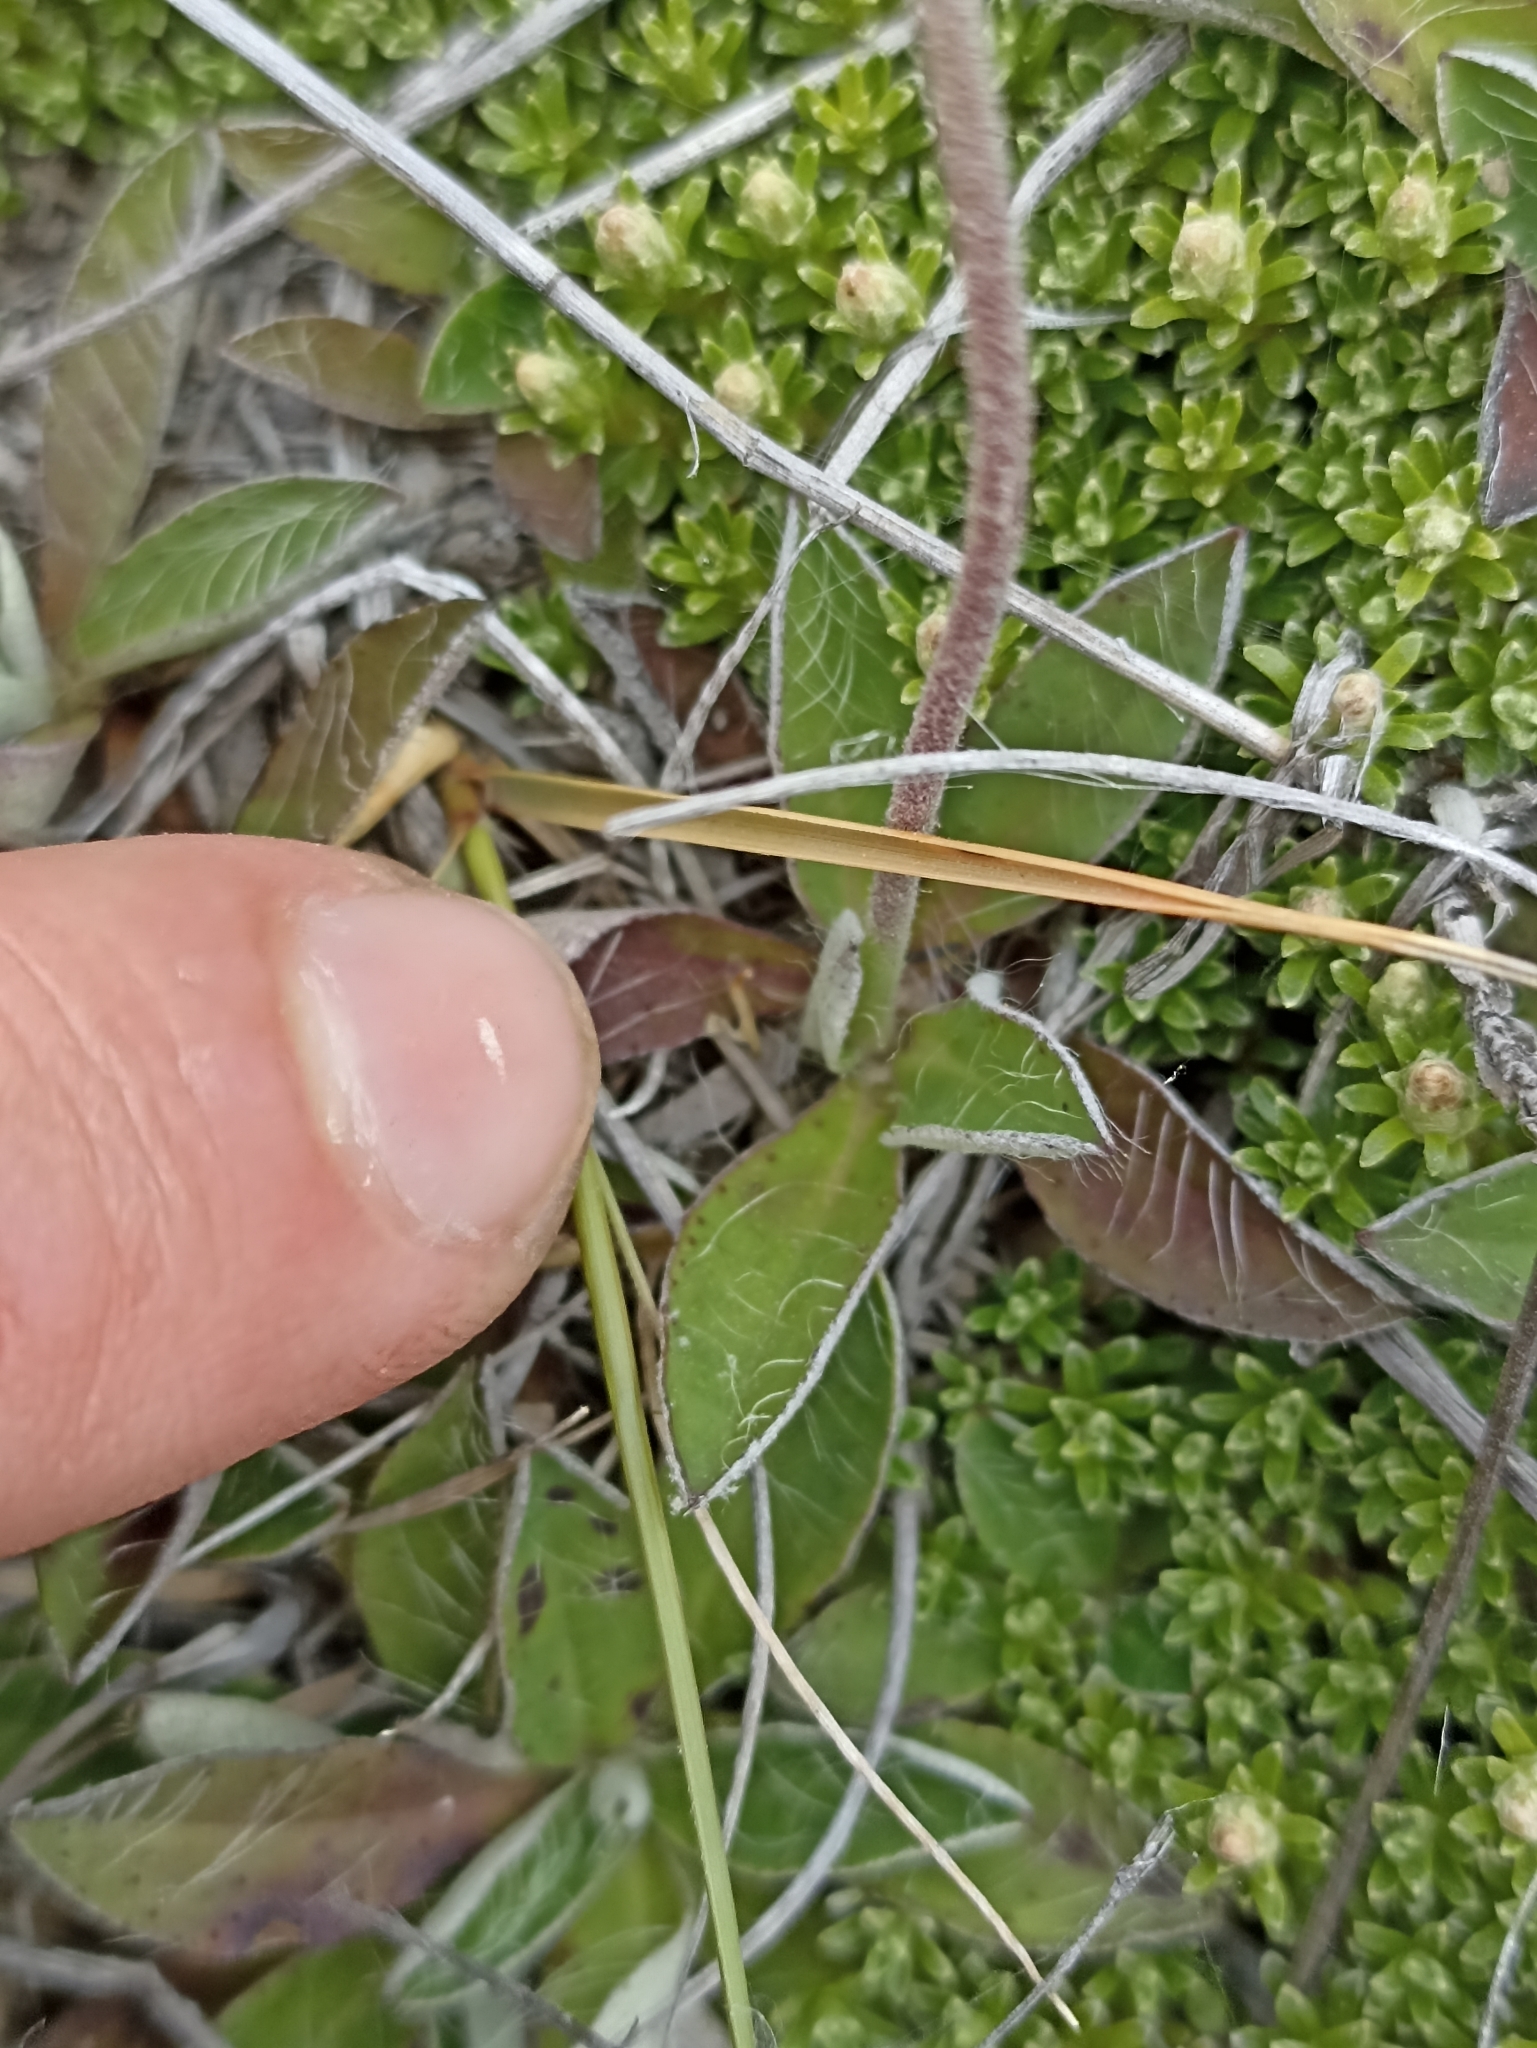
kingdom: Plantae
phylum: Tracheophyta
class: Magnoliopsida
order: Asterales
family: Asteraceae
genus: Pilosella
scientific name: Pilosella officinarum
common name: Mouse-ear hawkweed
